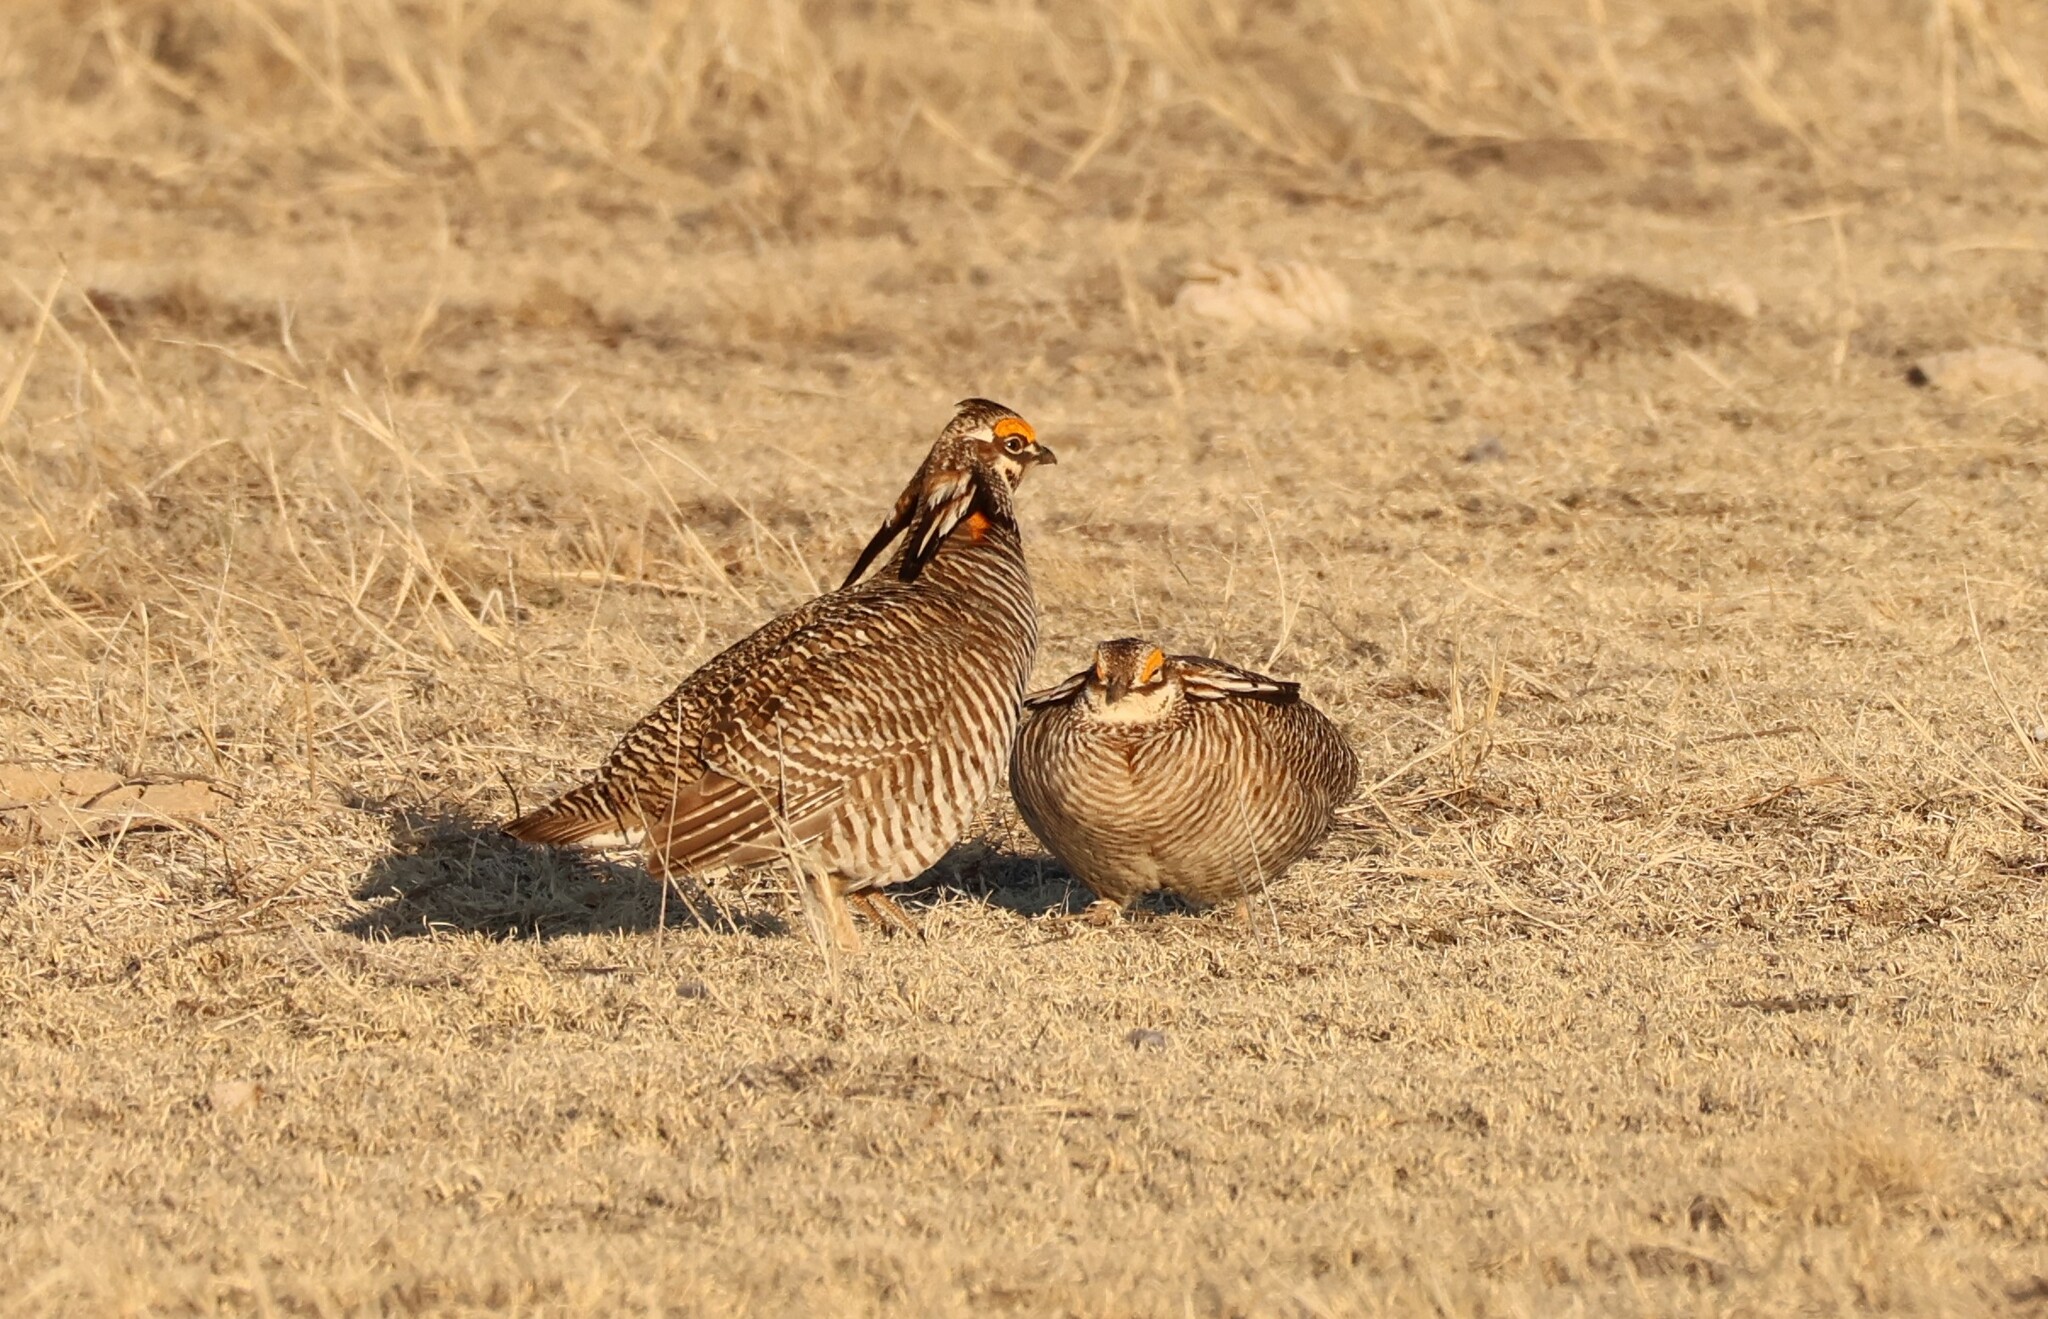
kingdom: Animalia
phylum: Chordata
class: Aves
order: Galliformes
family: Phasianidae
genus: Tympanuchus
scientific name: Tympanuchus pallidicinctus
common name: Lesser prairie chicken
